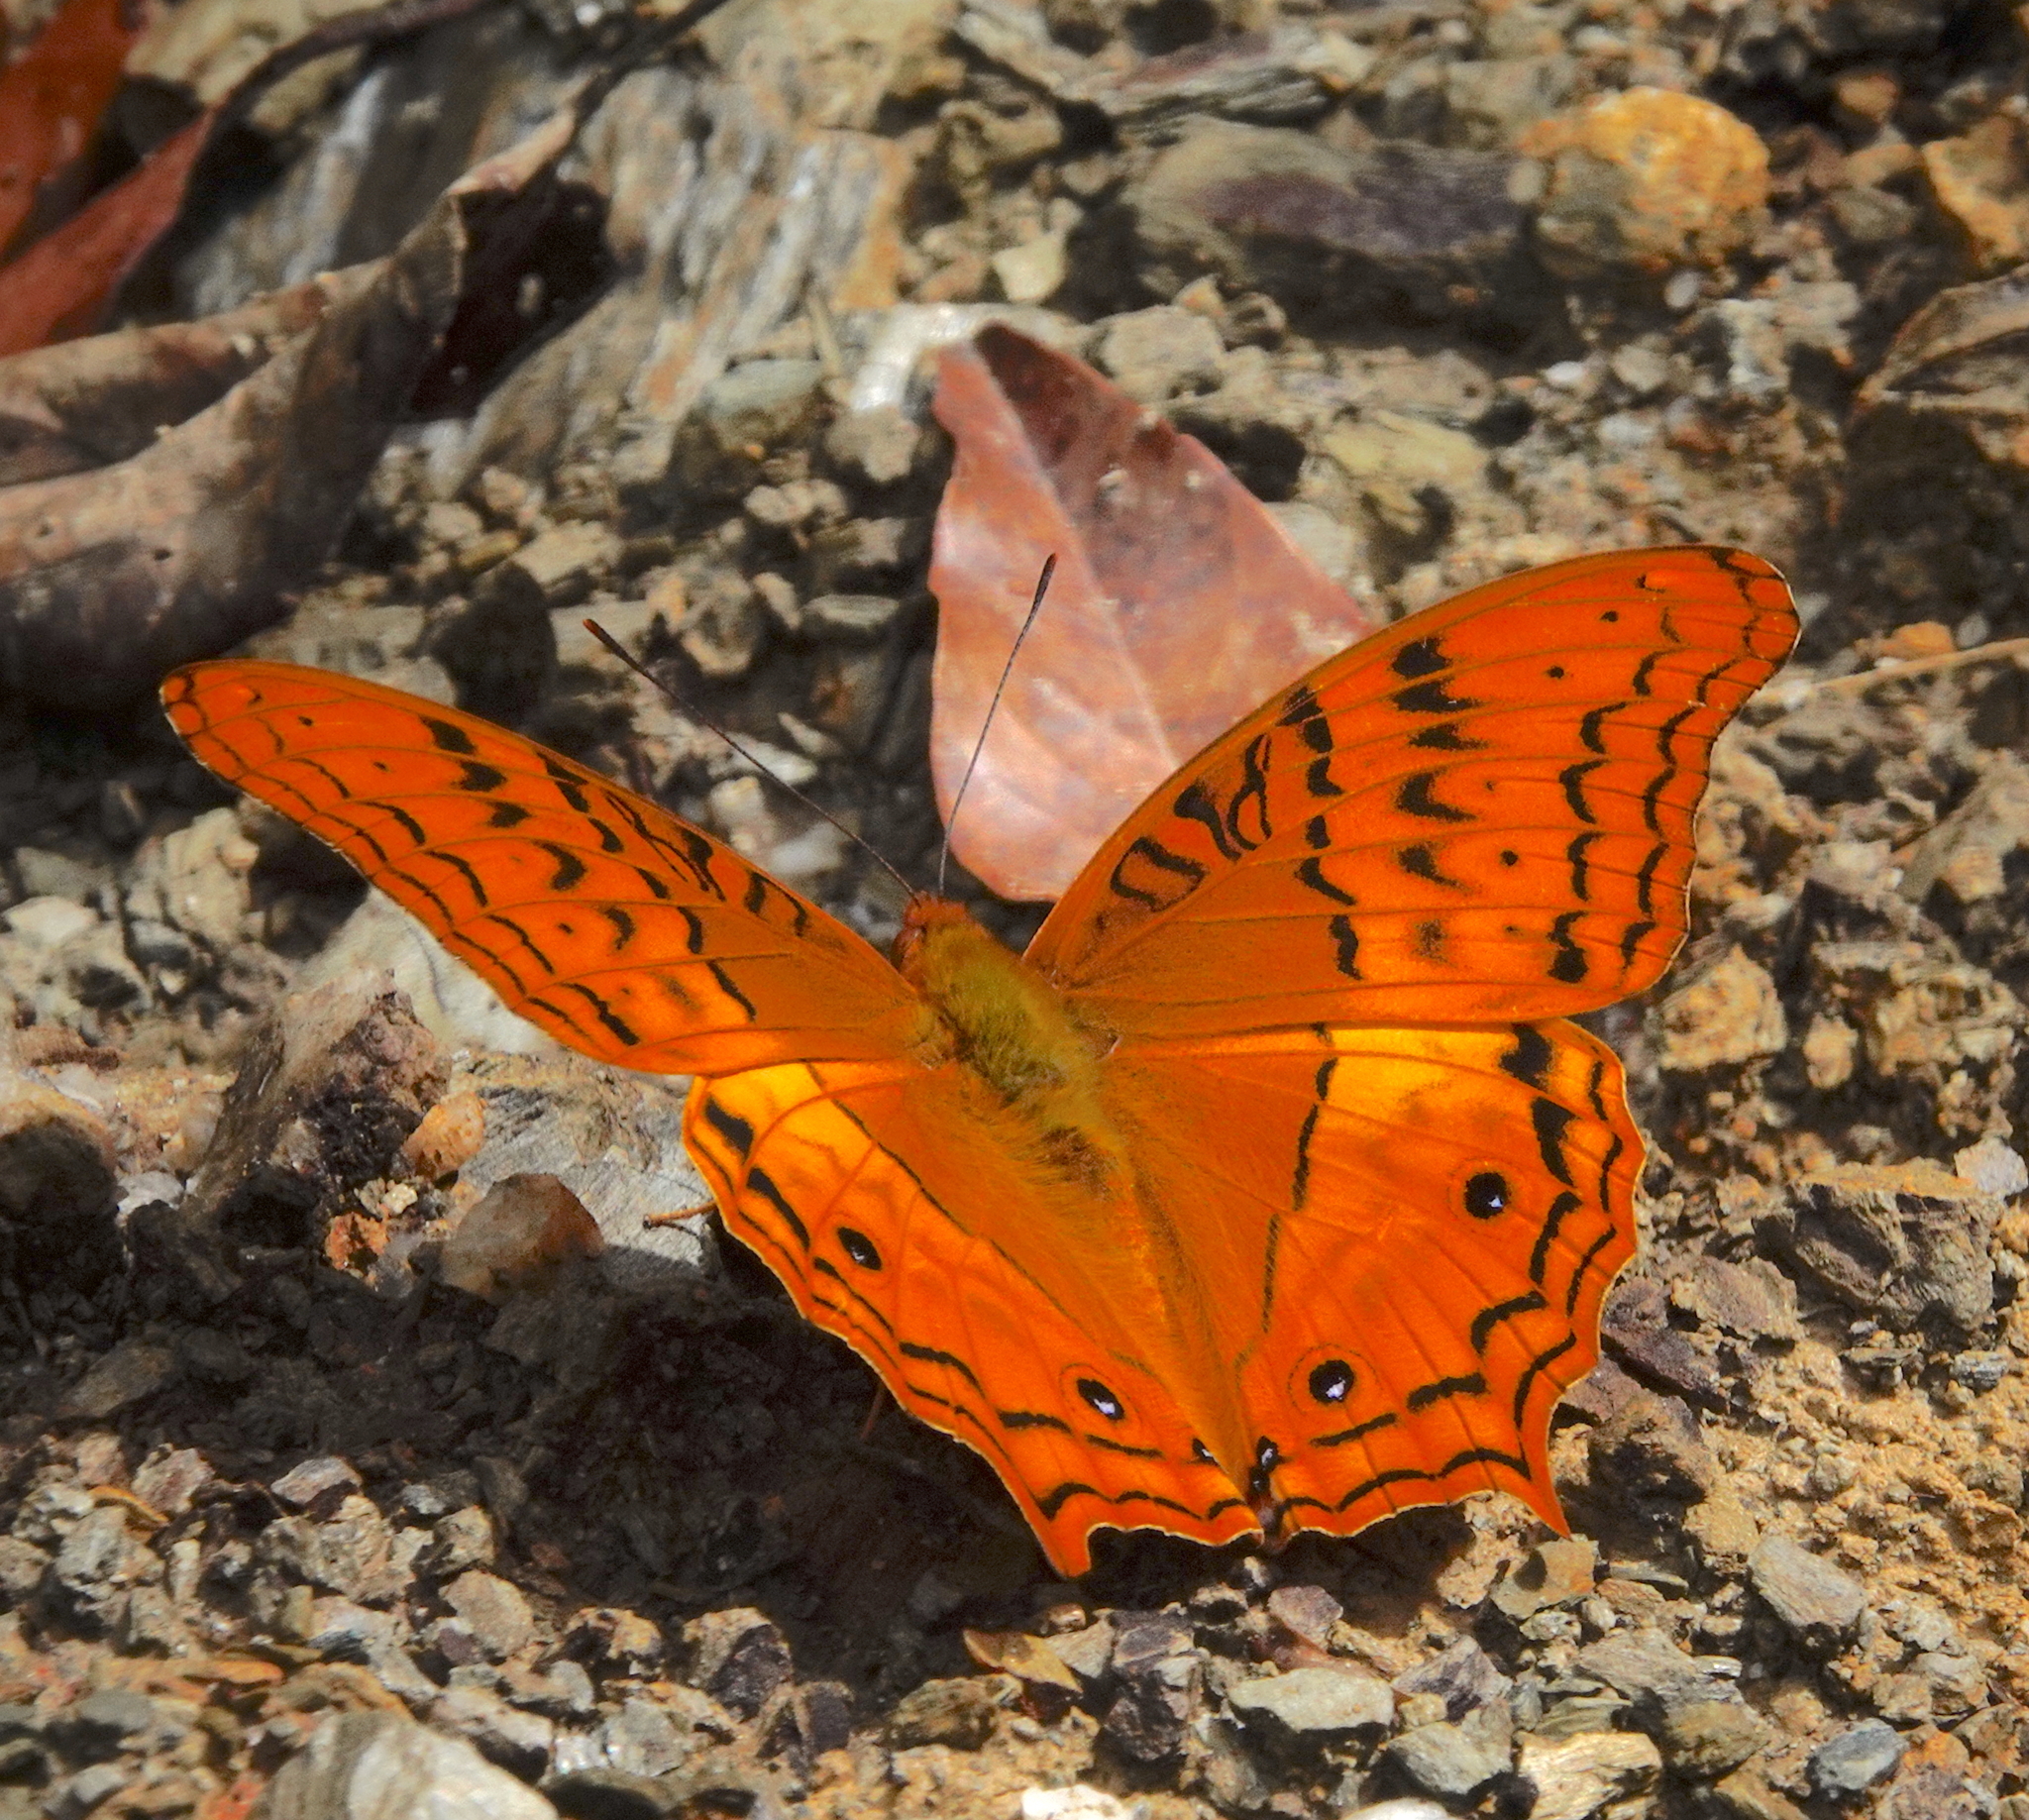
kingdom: Animalia
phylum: Arthropoda
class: Insecta
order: Lepidoptera
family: Nymphalidae
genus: Vindula
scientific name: Vindula deione
